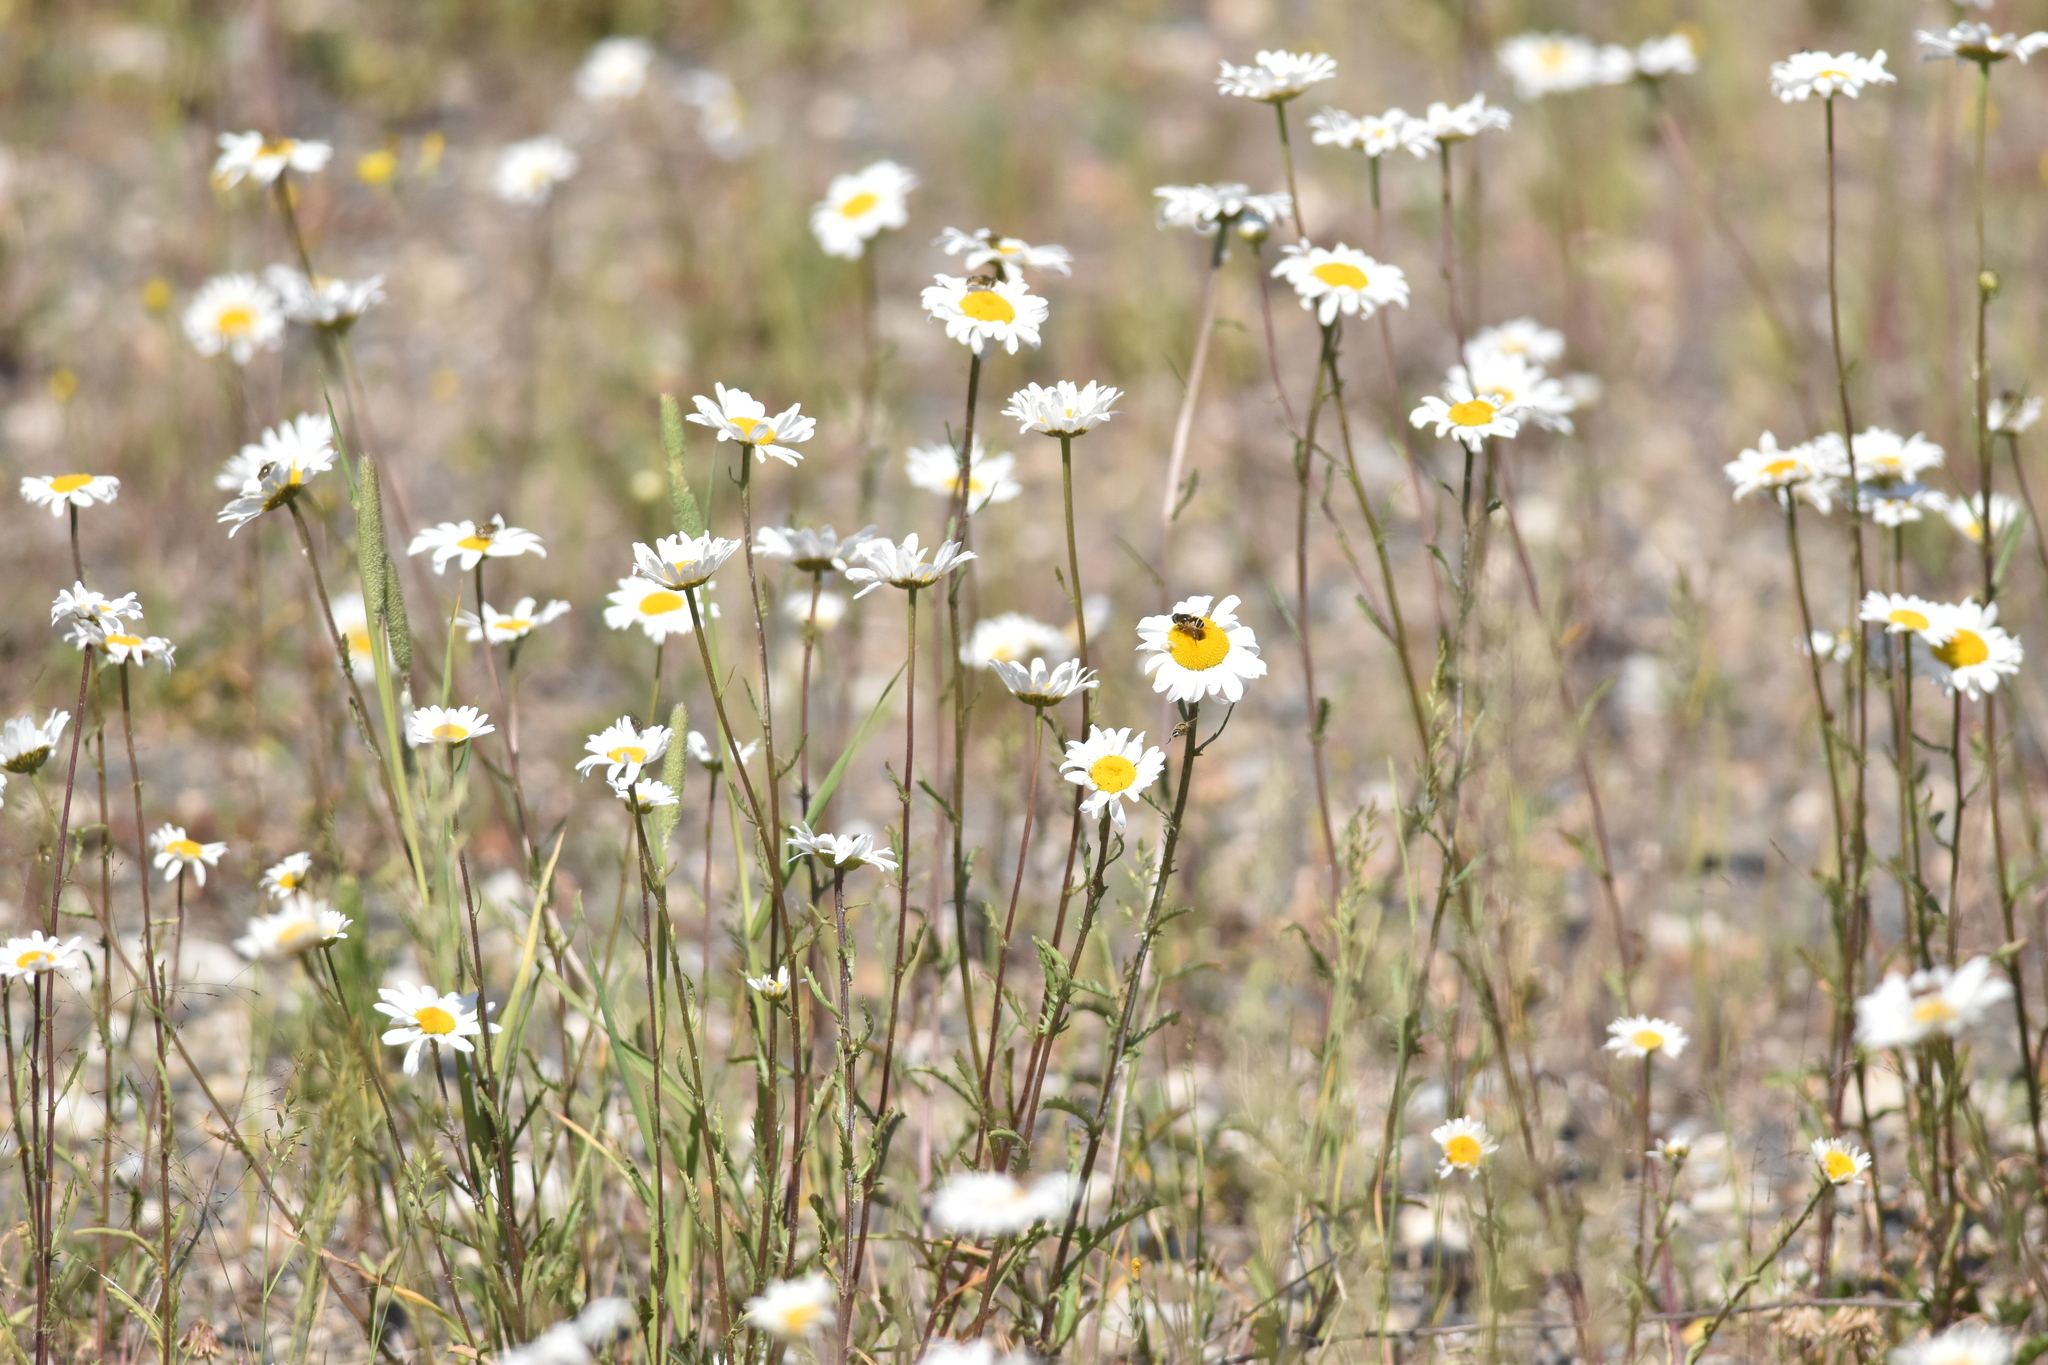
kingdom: Plantae
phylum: Tracheophyta
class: Magnoliopsida
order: Asterales
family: Asteraceae
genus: Leucanthemum
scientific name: Leucanthemum vulgare
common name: Oxeye daisy
